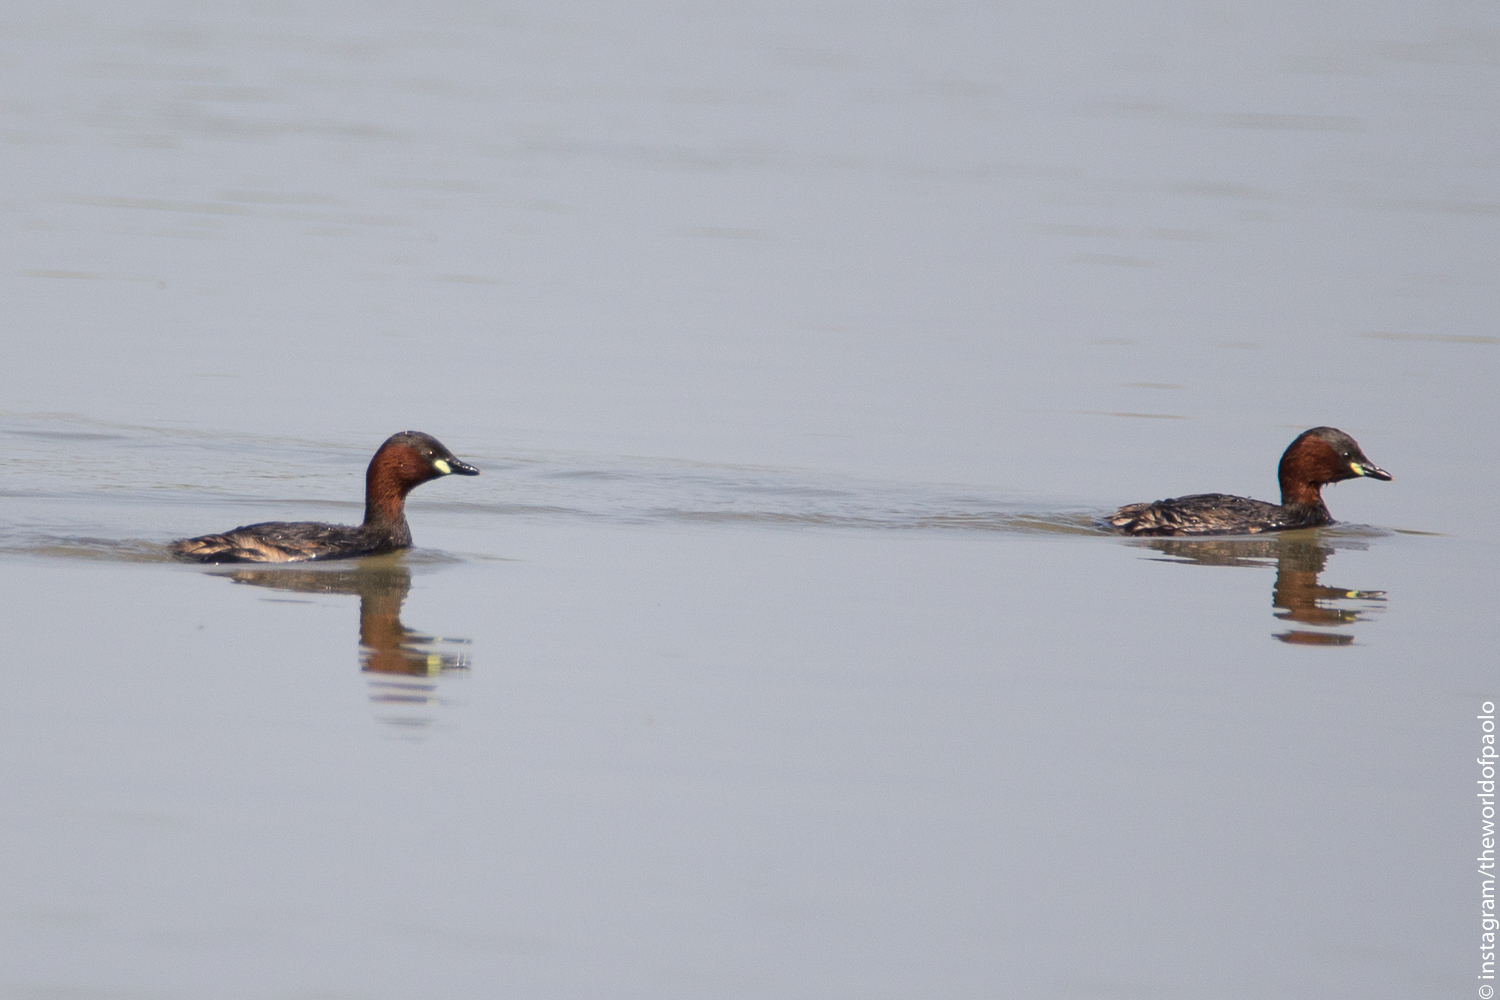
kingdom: Animalia
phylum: Chordata
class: Aves
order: Podicipediformes
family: Podicipedidae
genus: Tachybaptus
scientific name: Tachybaptus ruficollis
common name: Little grebe
